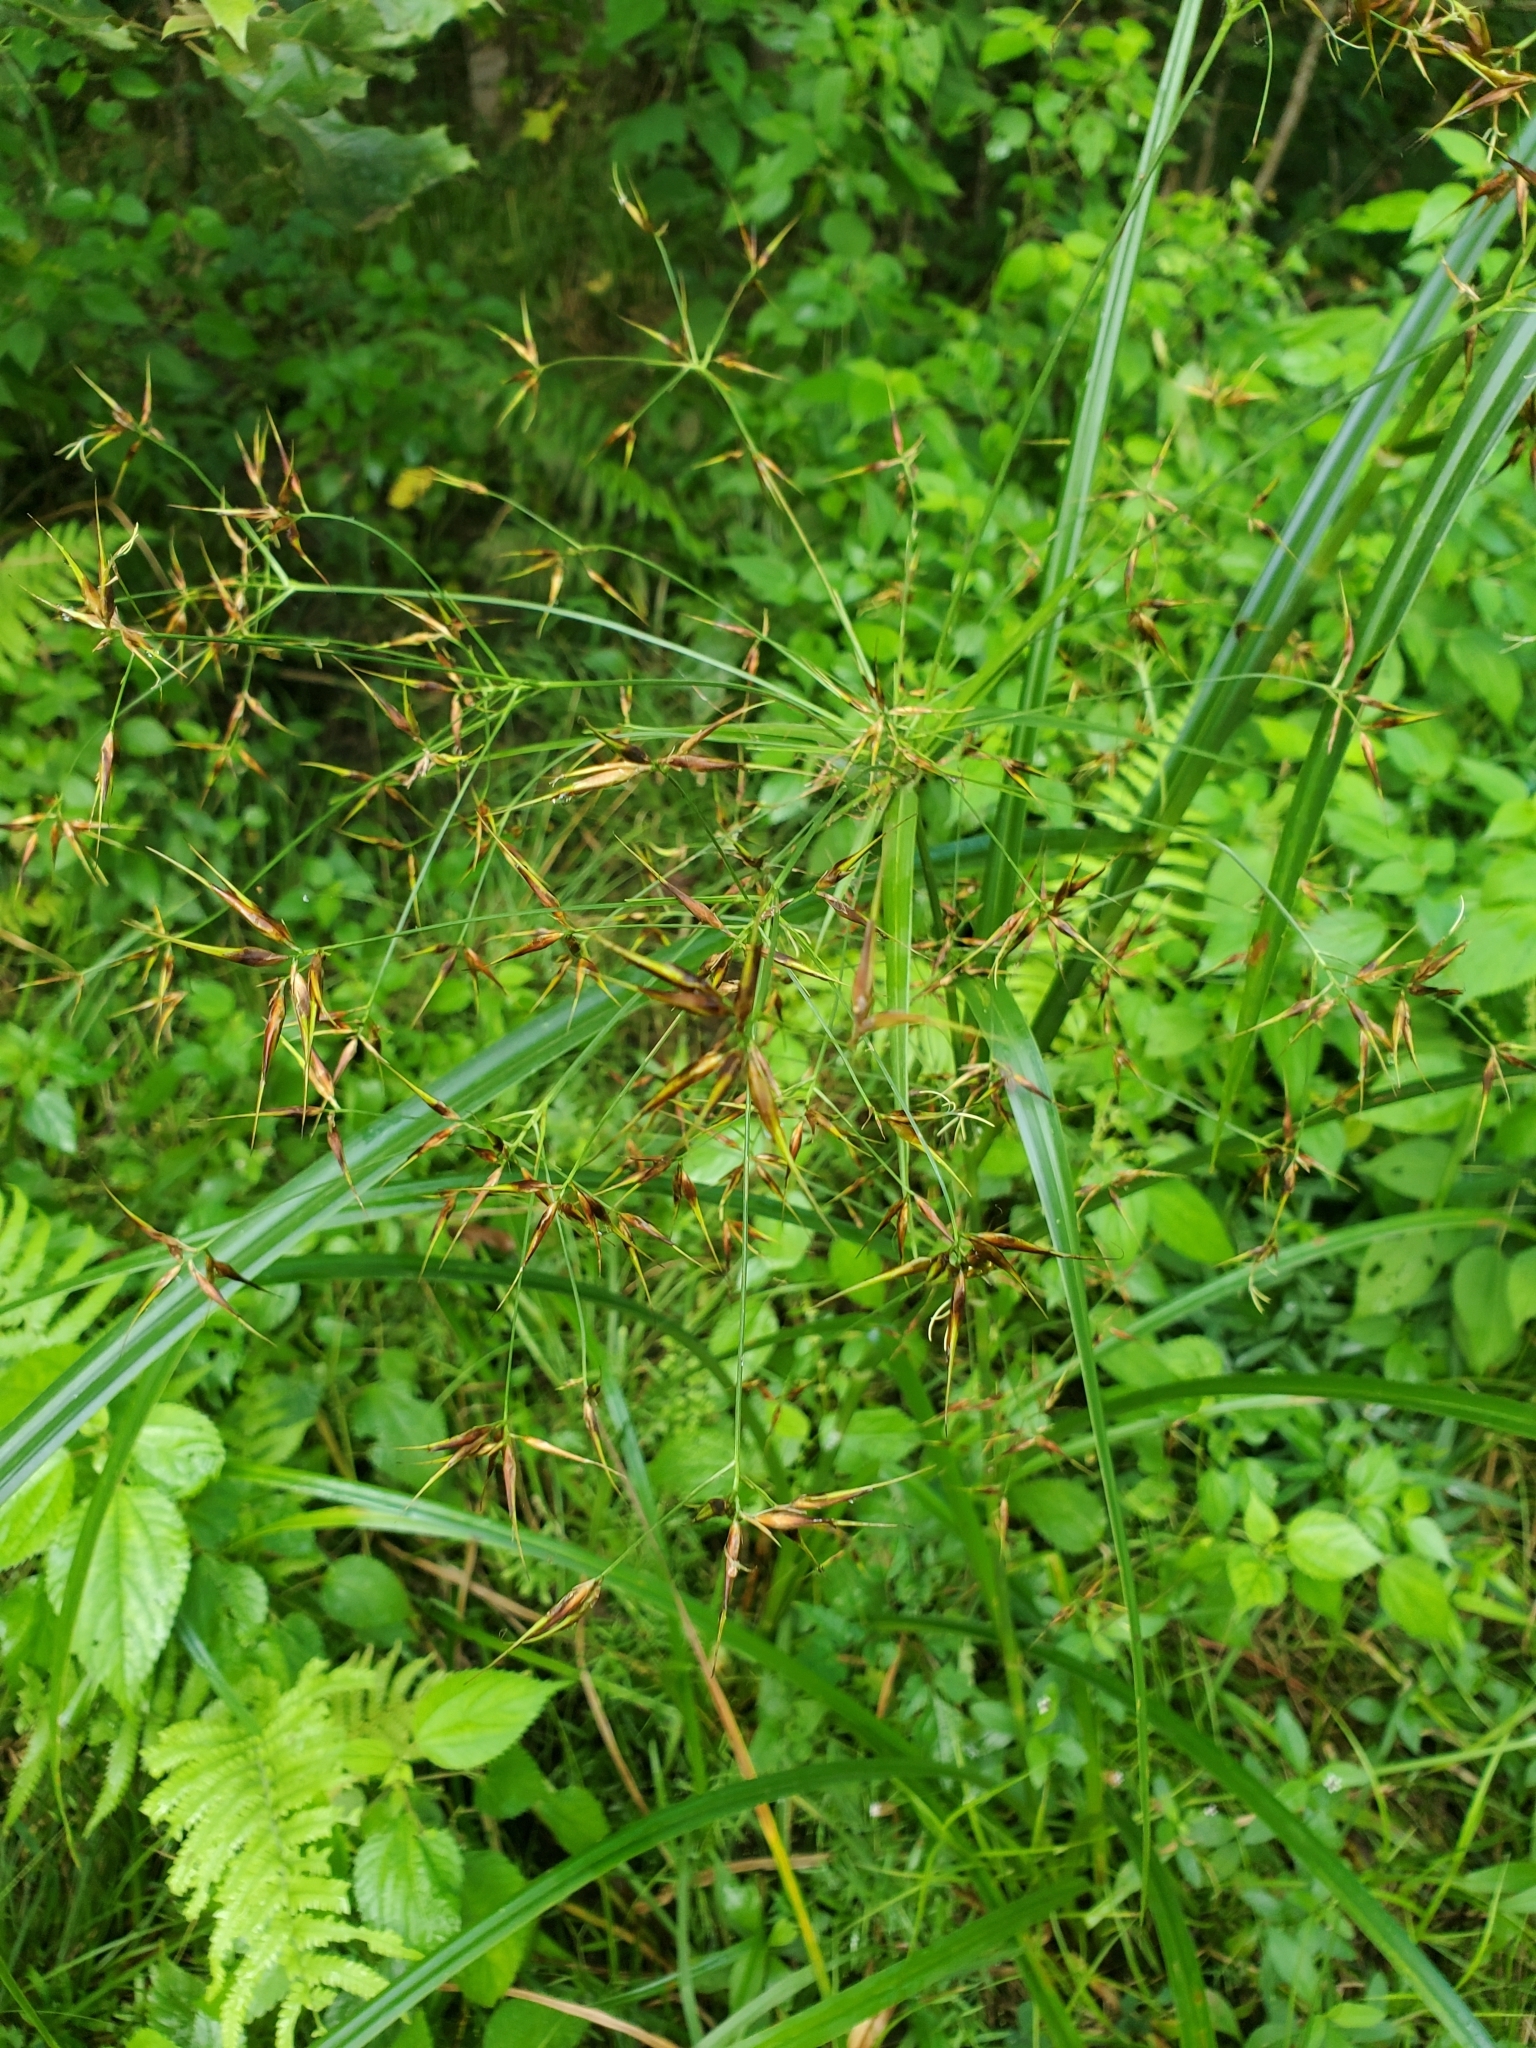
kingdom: Plantae
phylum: Tracheophyta
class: Liliopsida
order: Poales
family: Cyperaceae
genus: Rhynchospora
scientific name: Rhynchospora corniculata
